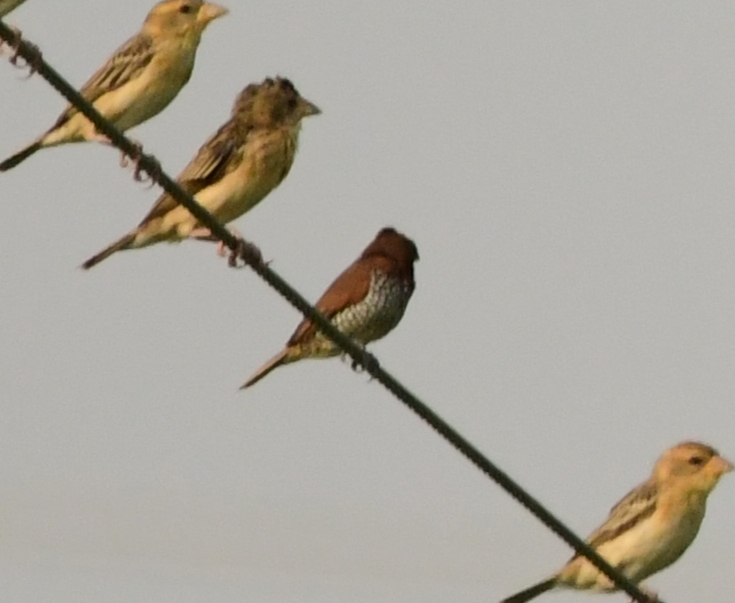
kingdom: Animalia
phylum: Chordata
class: Aves
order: Passeriformes
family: Estrildidae
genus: Lonchura
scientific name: Lonchura punctulata
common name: Scaly-breasted munia
